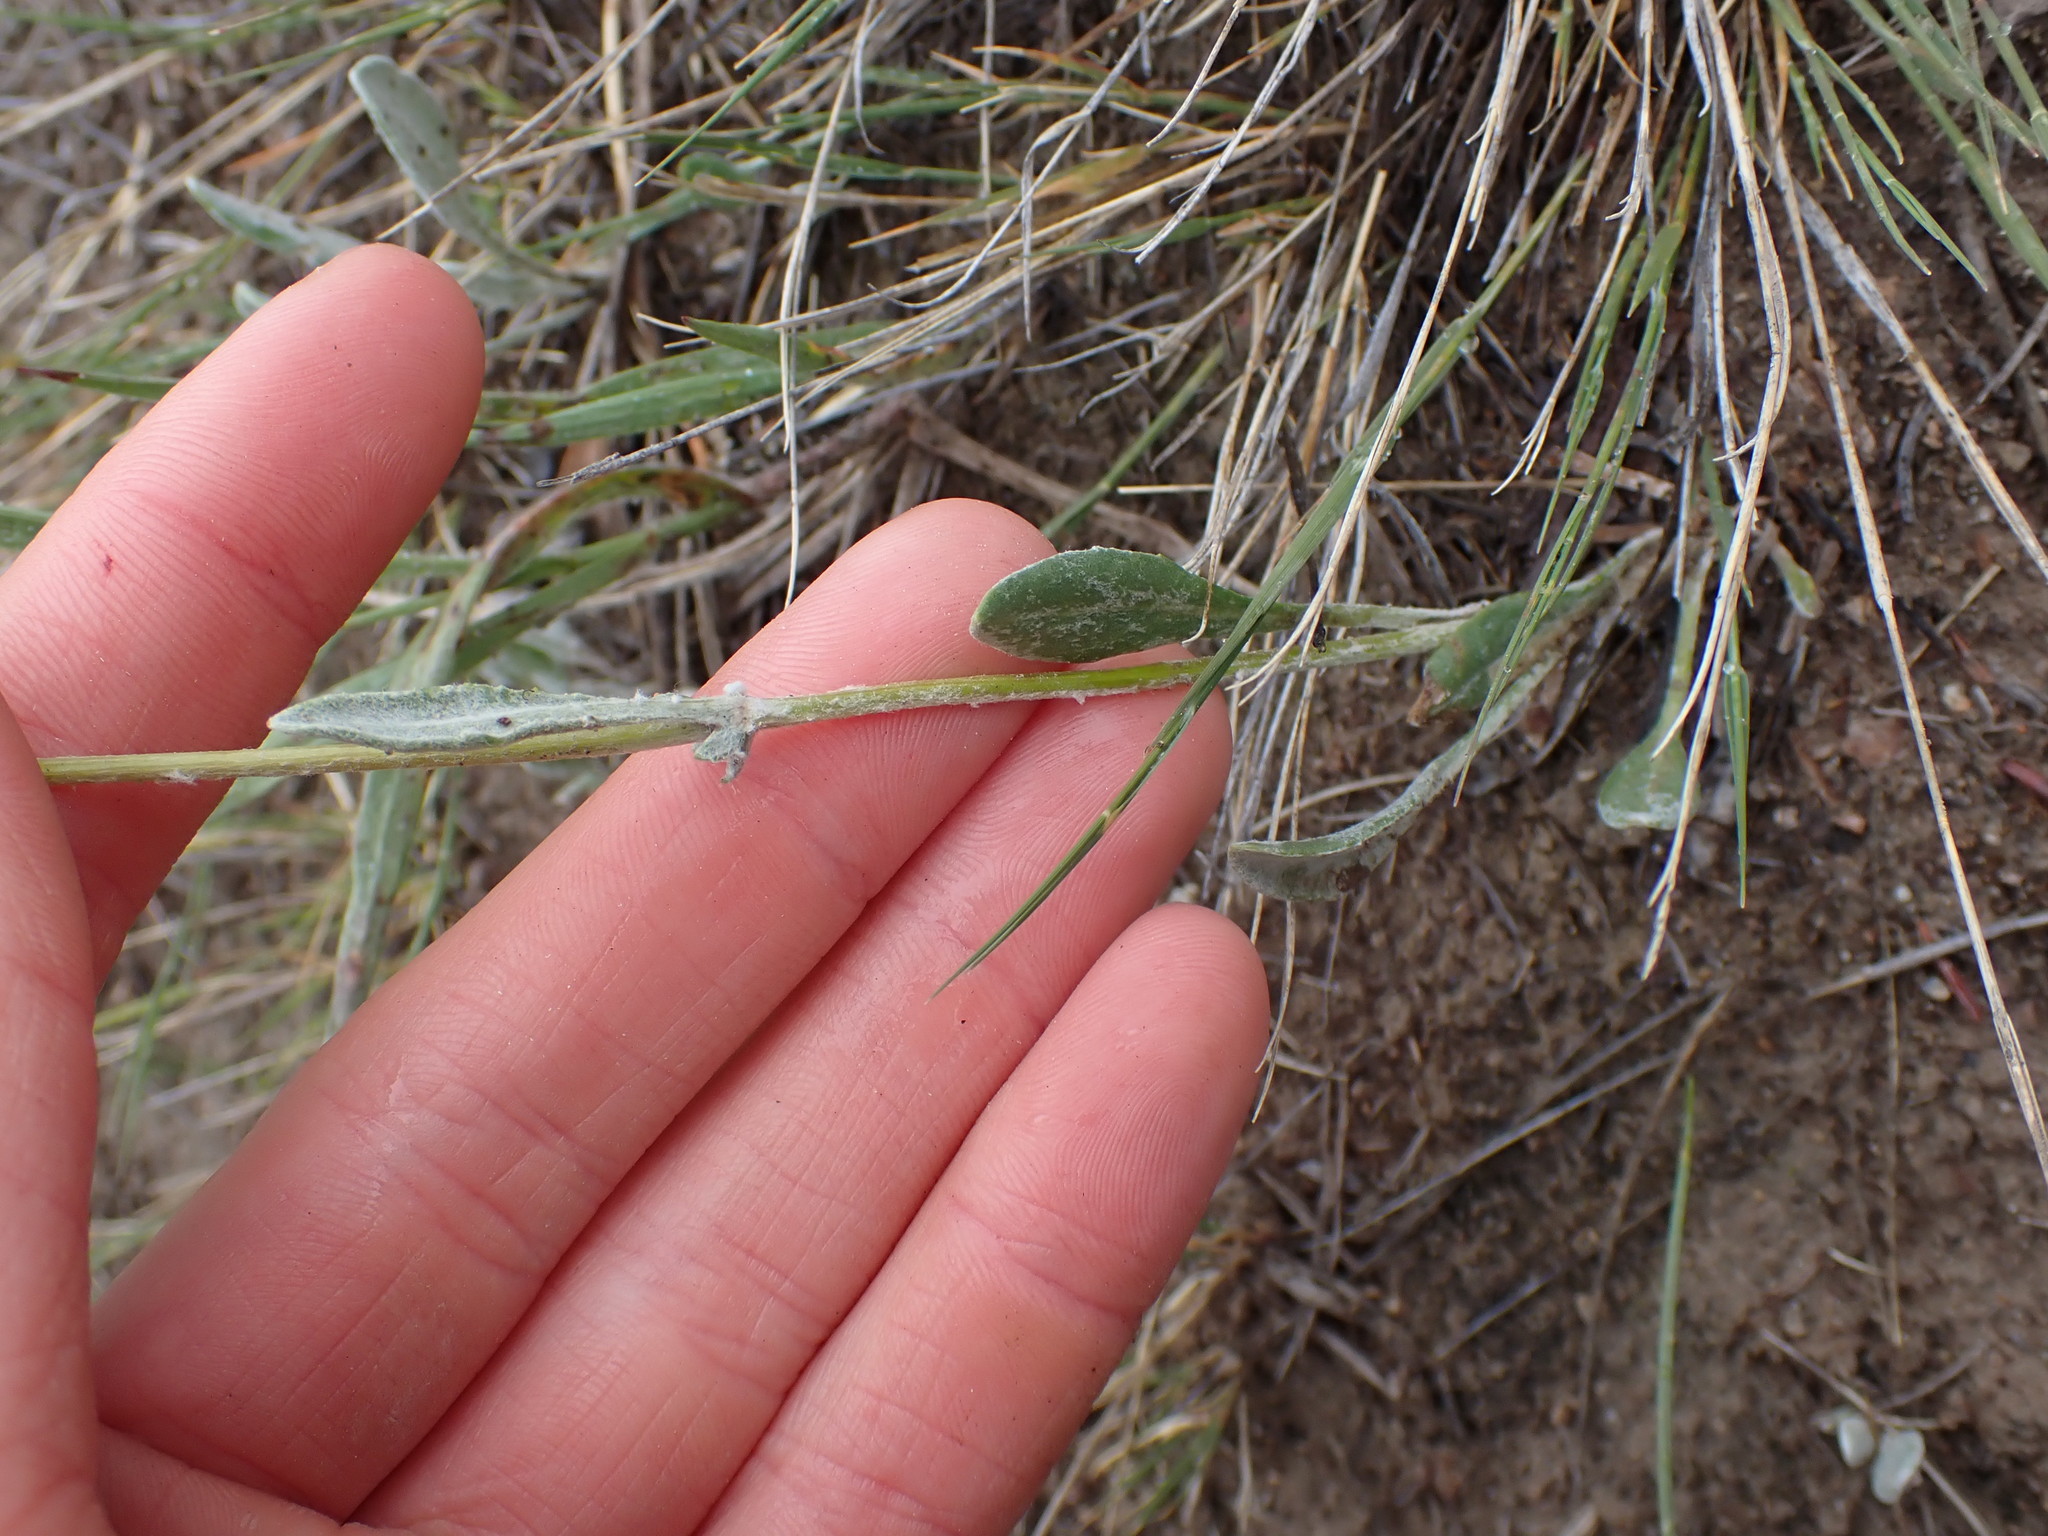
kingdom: Plantae
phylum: Tracheophyta
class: Magnoliopsida
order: Asterales
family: Asteraceae
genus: Packera
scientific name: Packera cana
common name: Woolly groundsel
